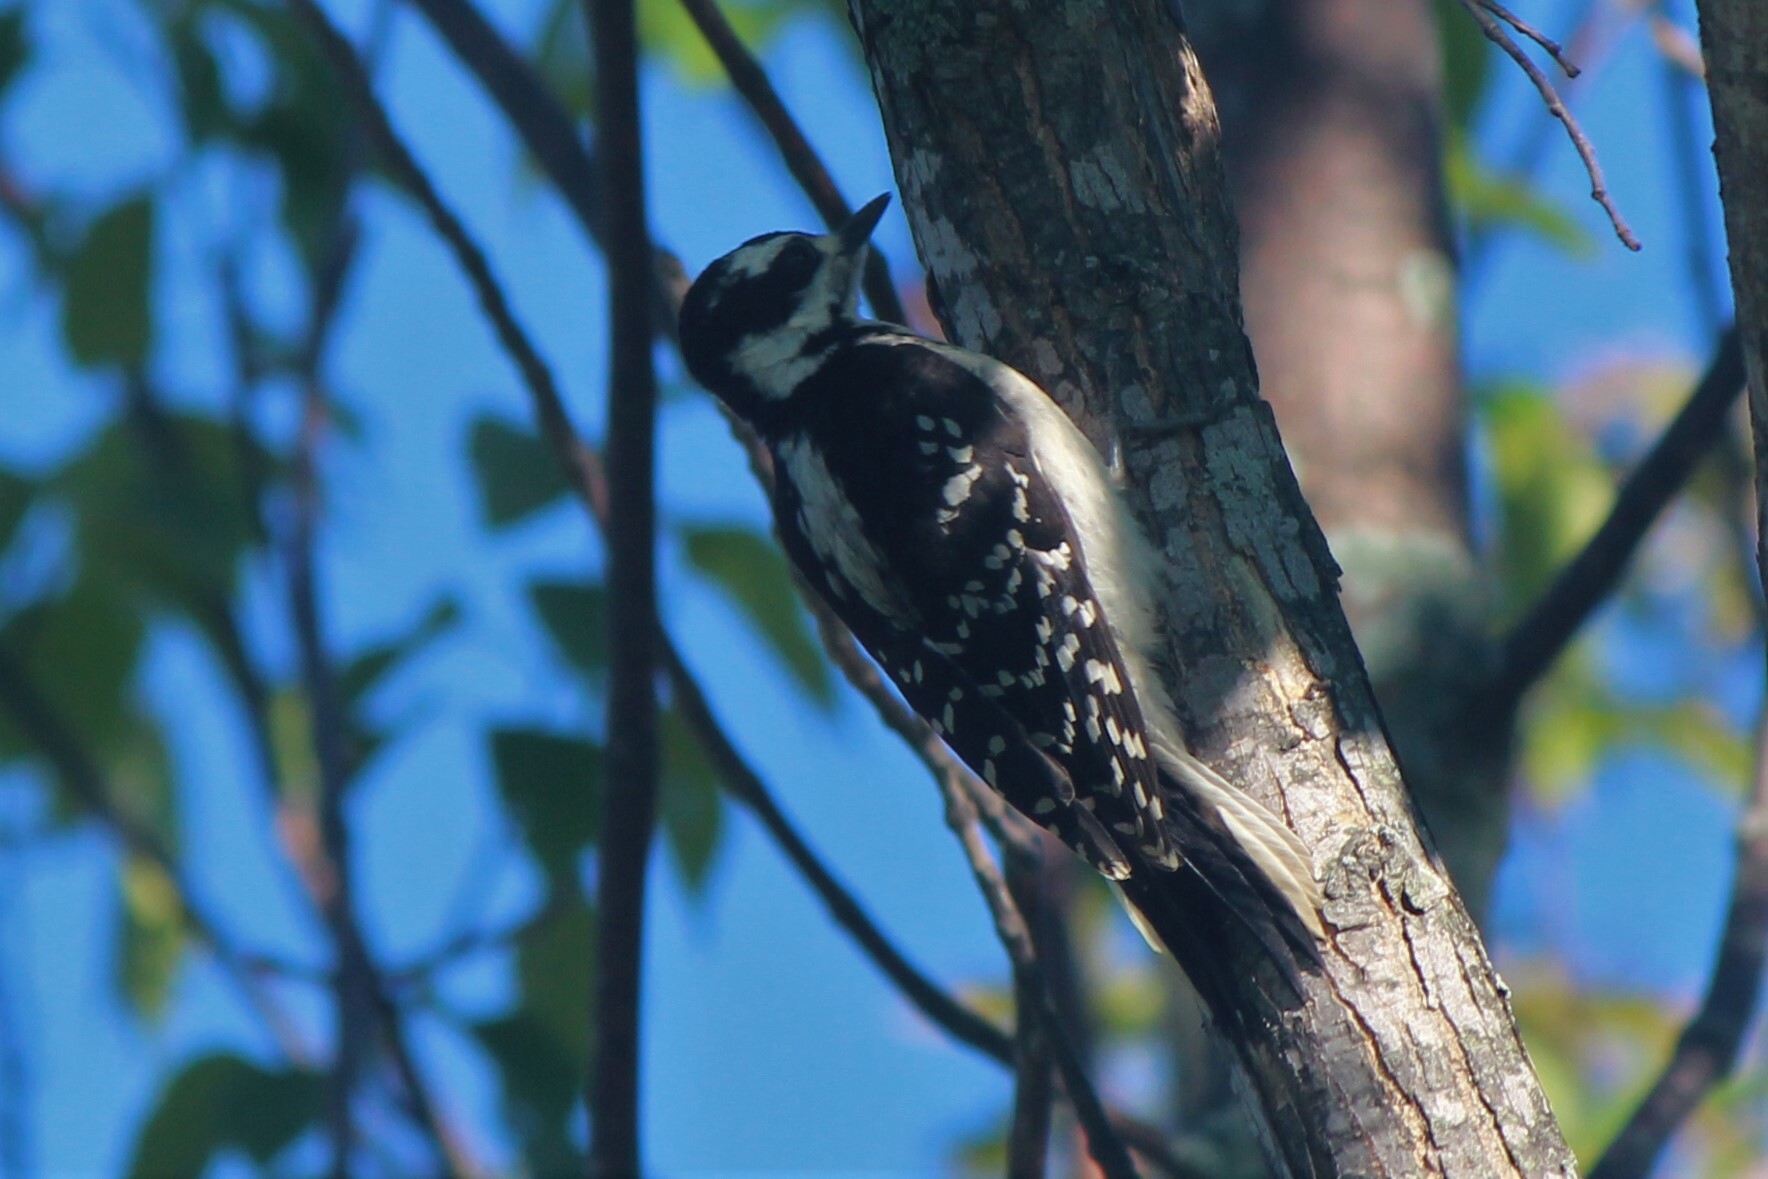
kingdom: Animalia
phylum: Chordata
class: Aves
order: Piciformes
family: Picidae
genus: Leuconotopicus
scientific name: Leuconotopicus villosus
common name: Hairy woodpecker
